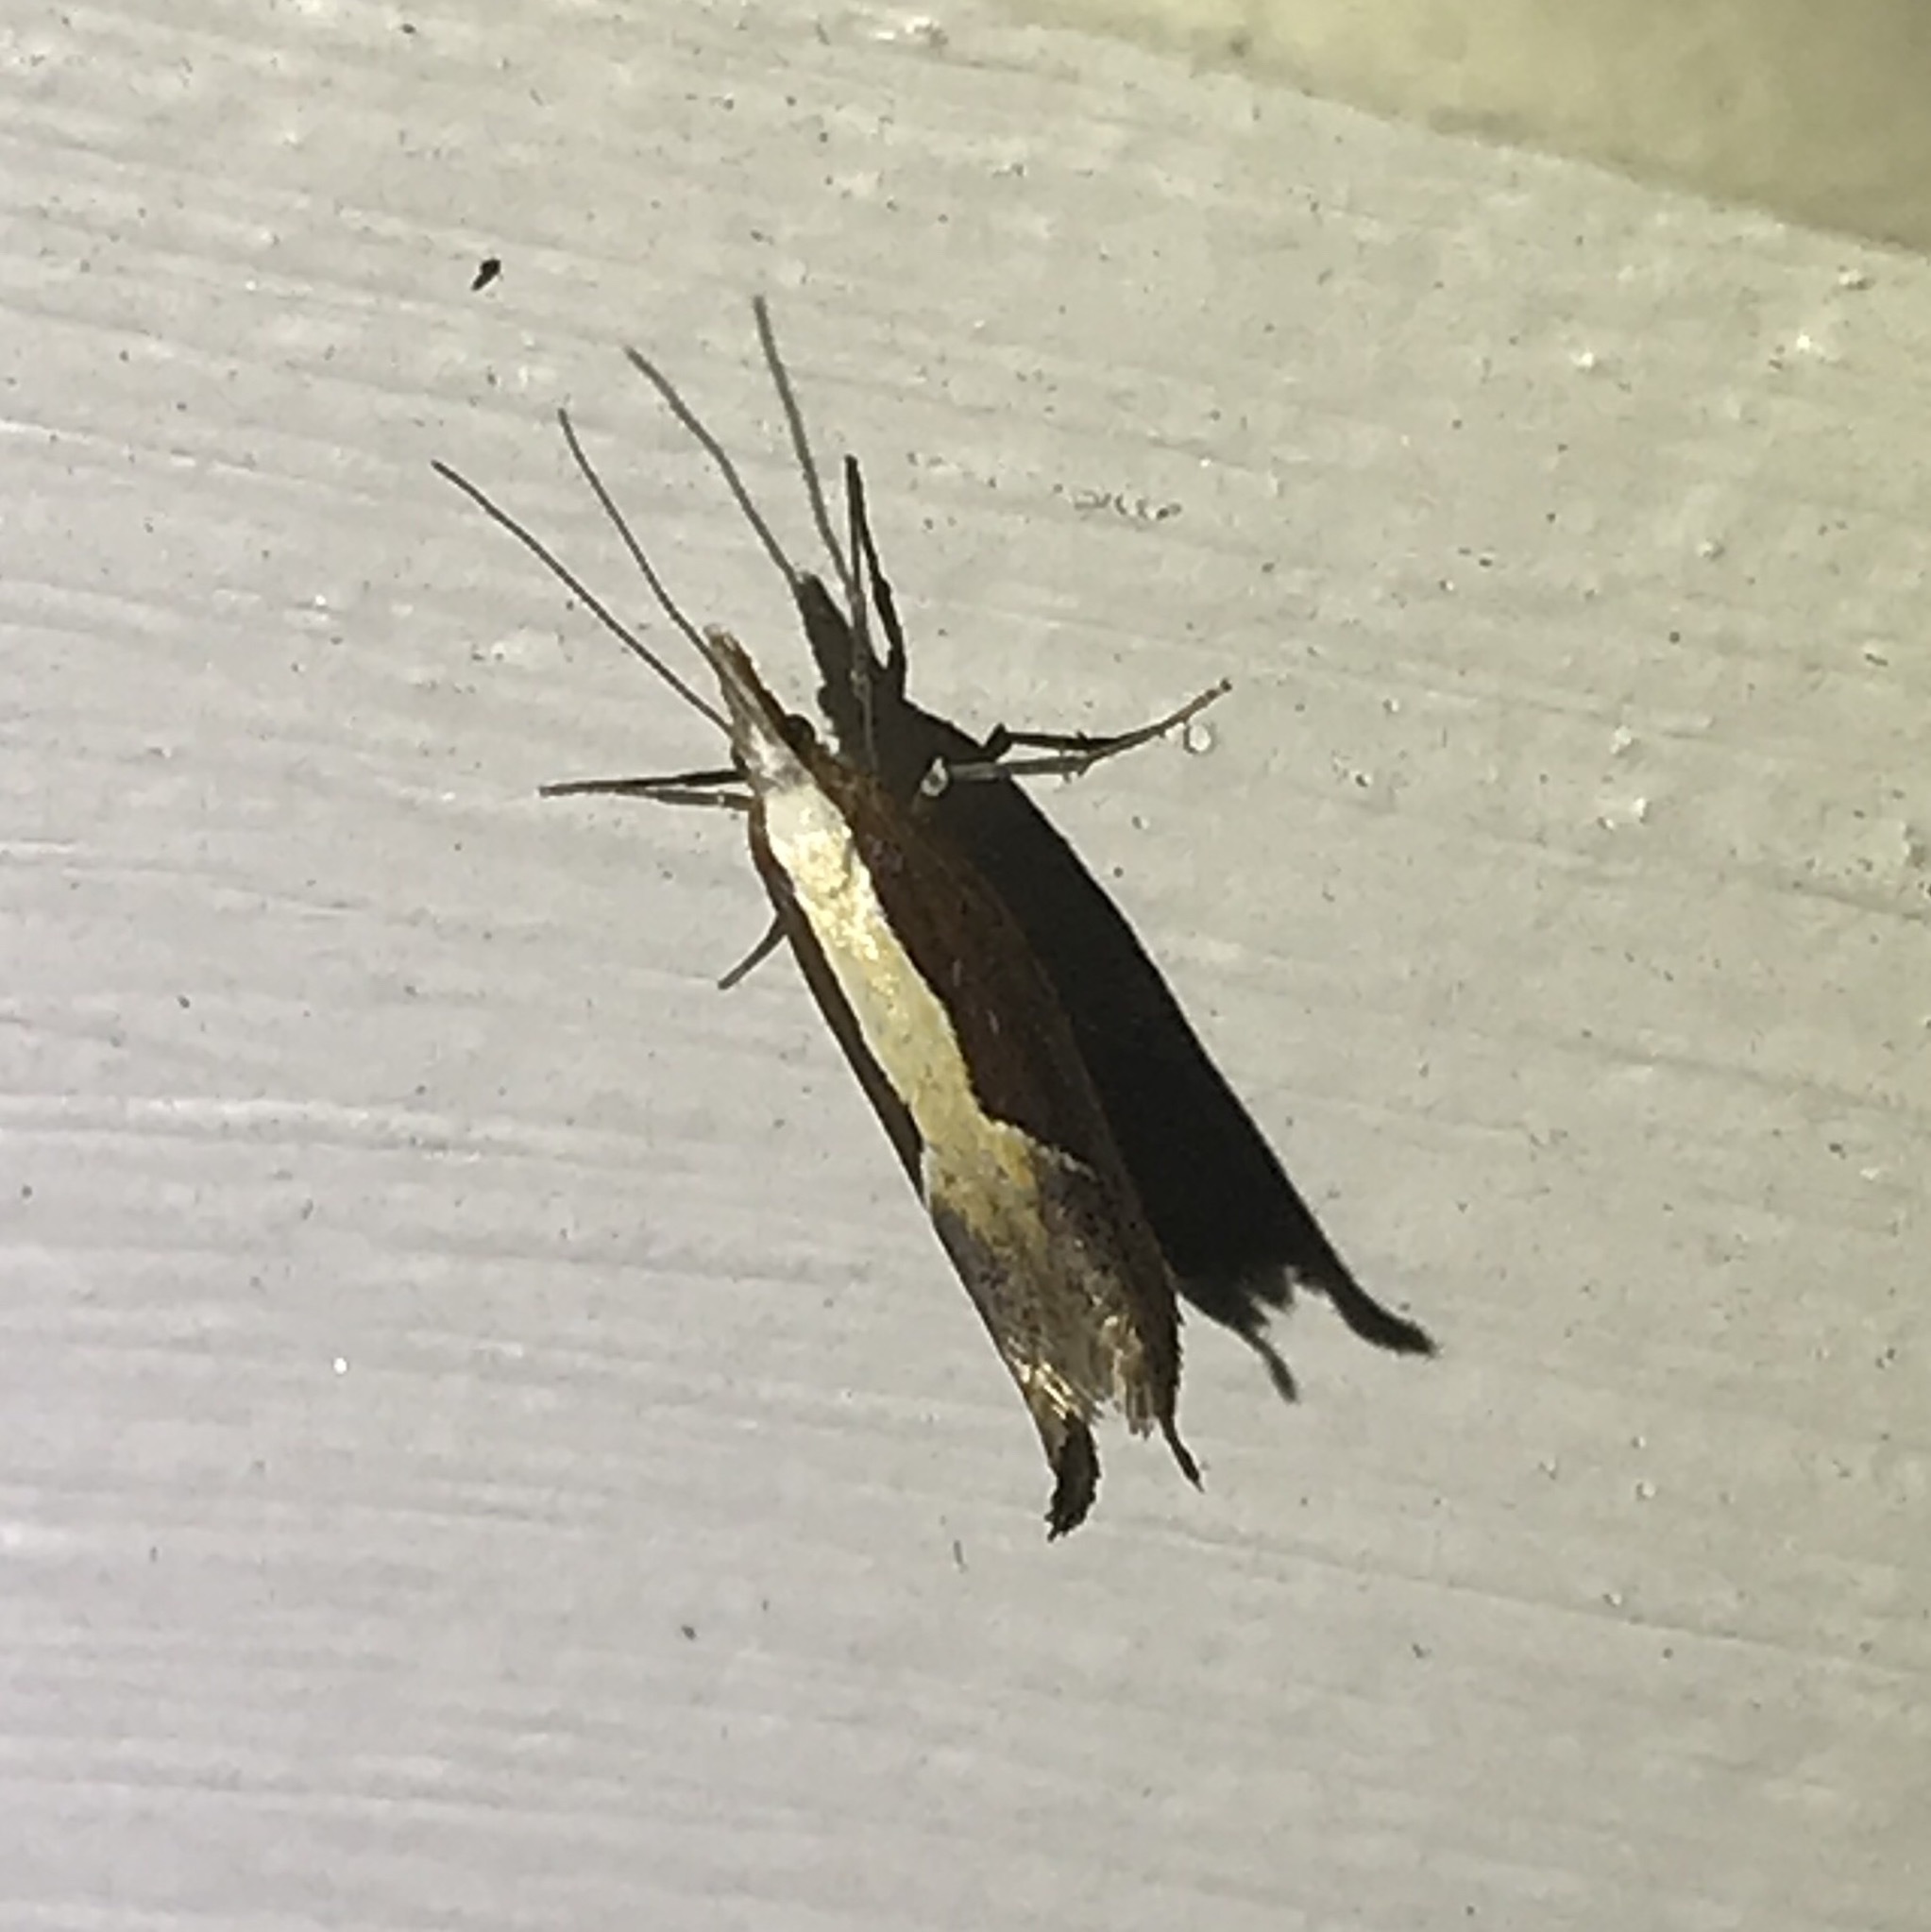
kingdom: Animalia
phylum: Arthropoda
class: Insecta
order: Lepidoptera
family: Ypsolophidae
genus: Ypsolopha
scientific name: Ypsolopha dentella
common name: Honeysuckle moth
